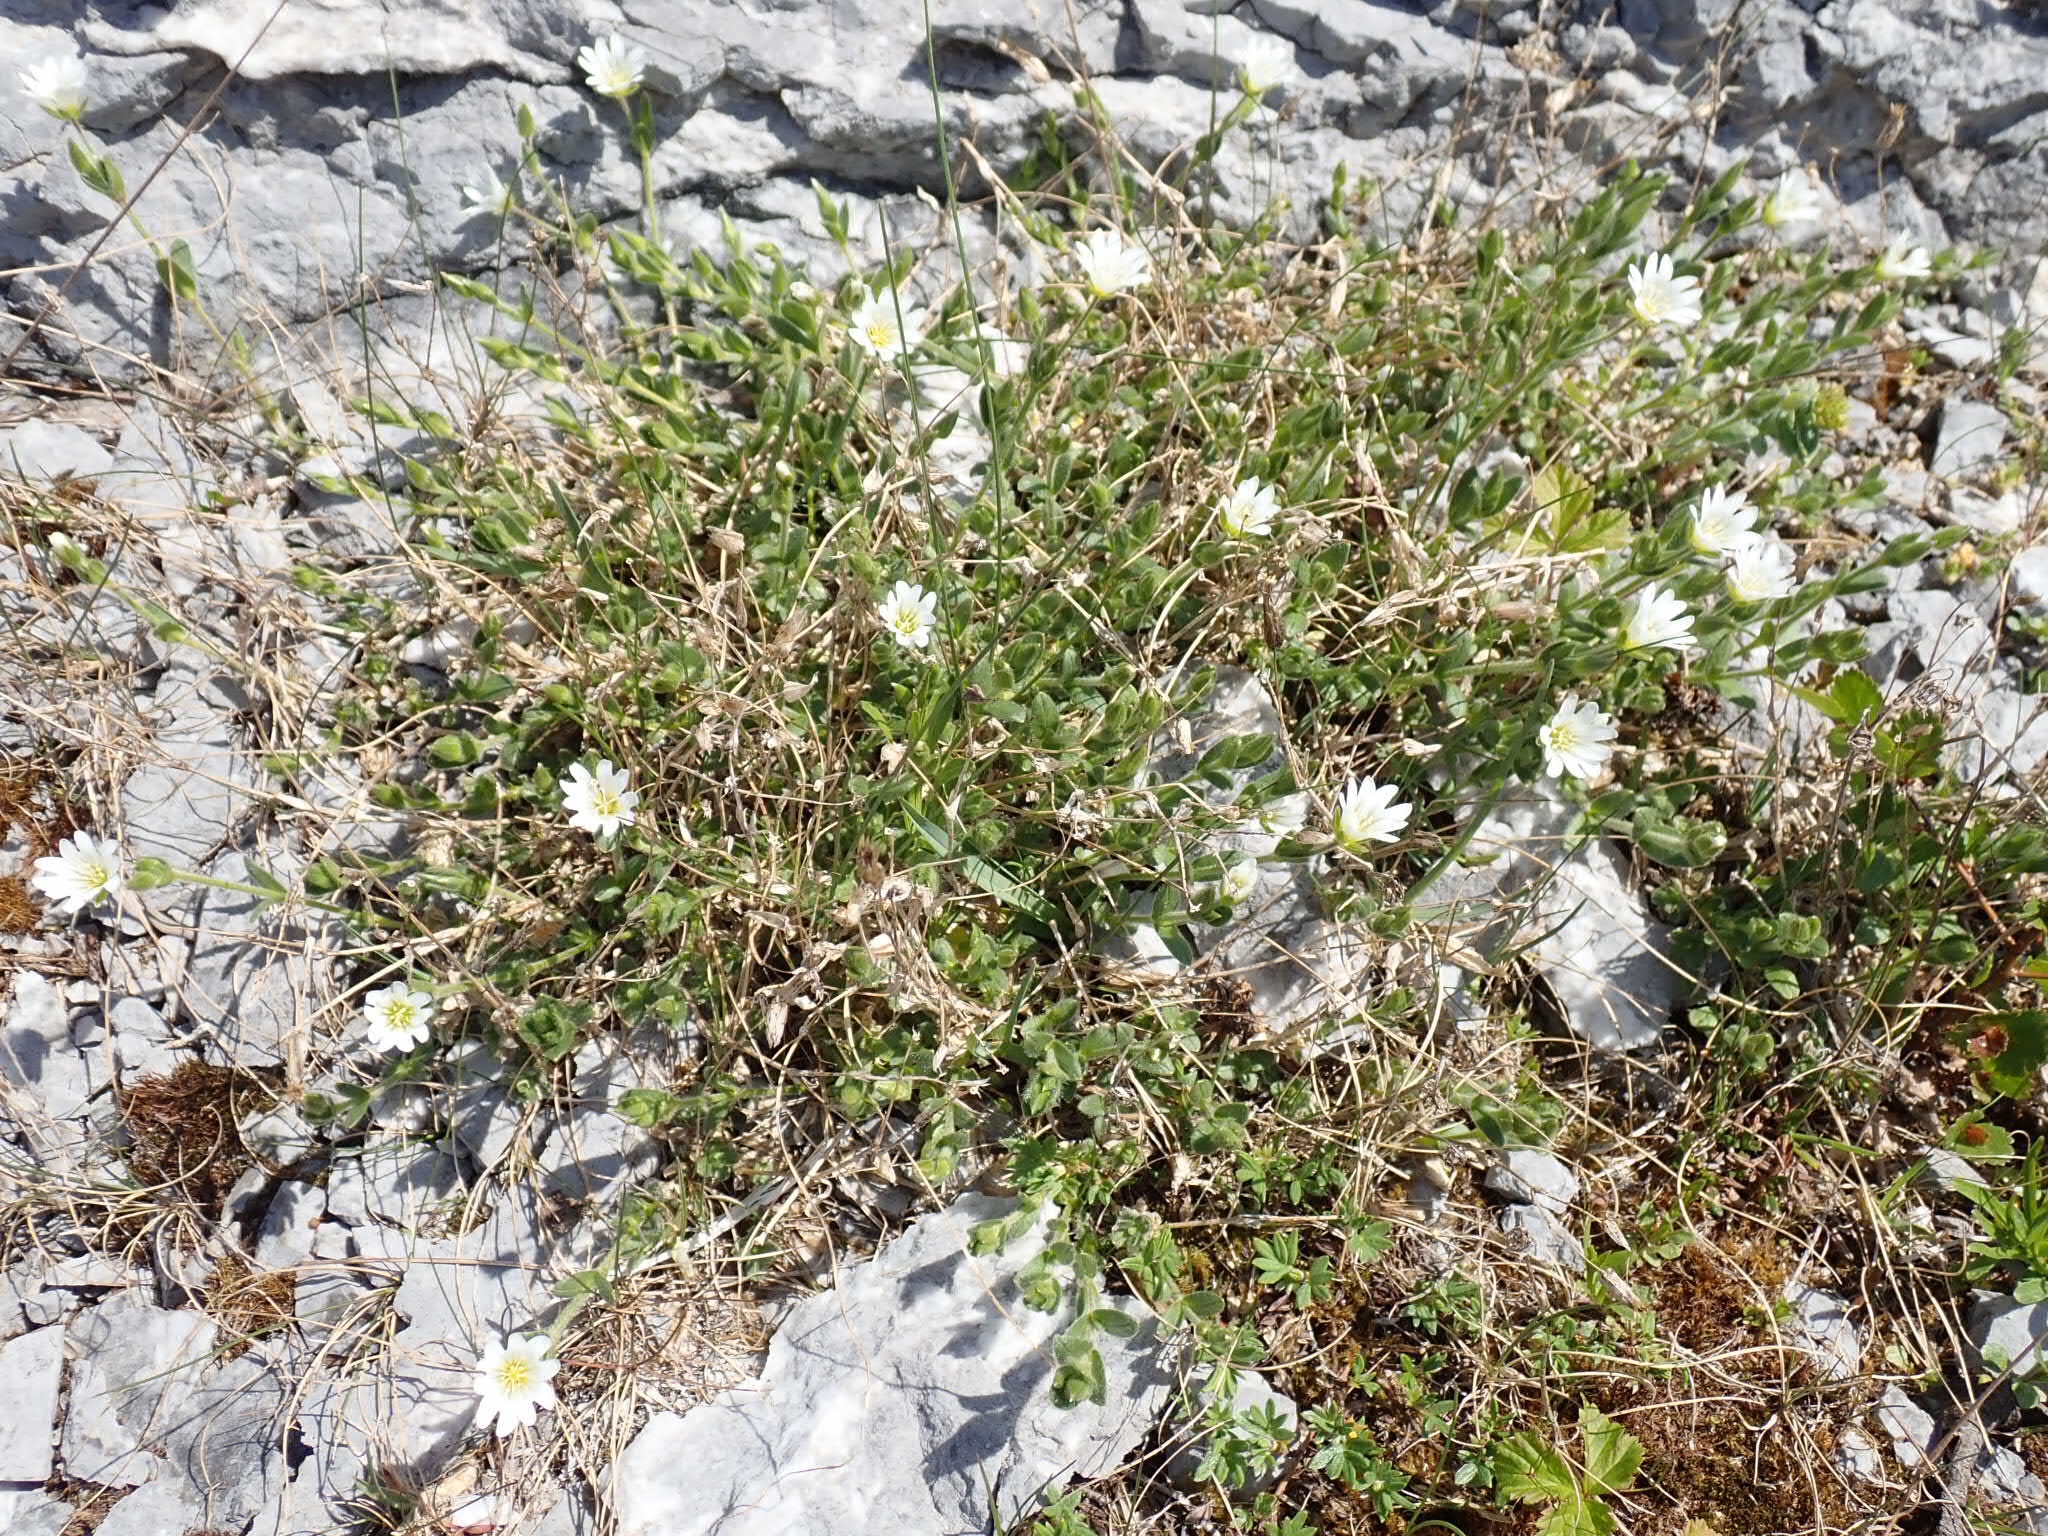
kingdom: Plantae
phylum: Tracheophyta
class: Magnoliopsida
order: Rosales
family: Rosaceae
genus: Dryas
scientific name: Dryas integrifolia
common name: Entire-leaved mountain avens
